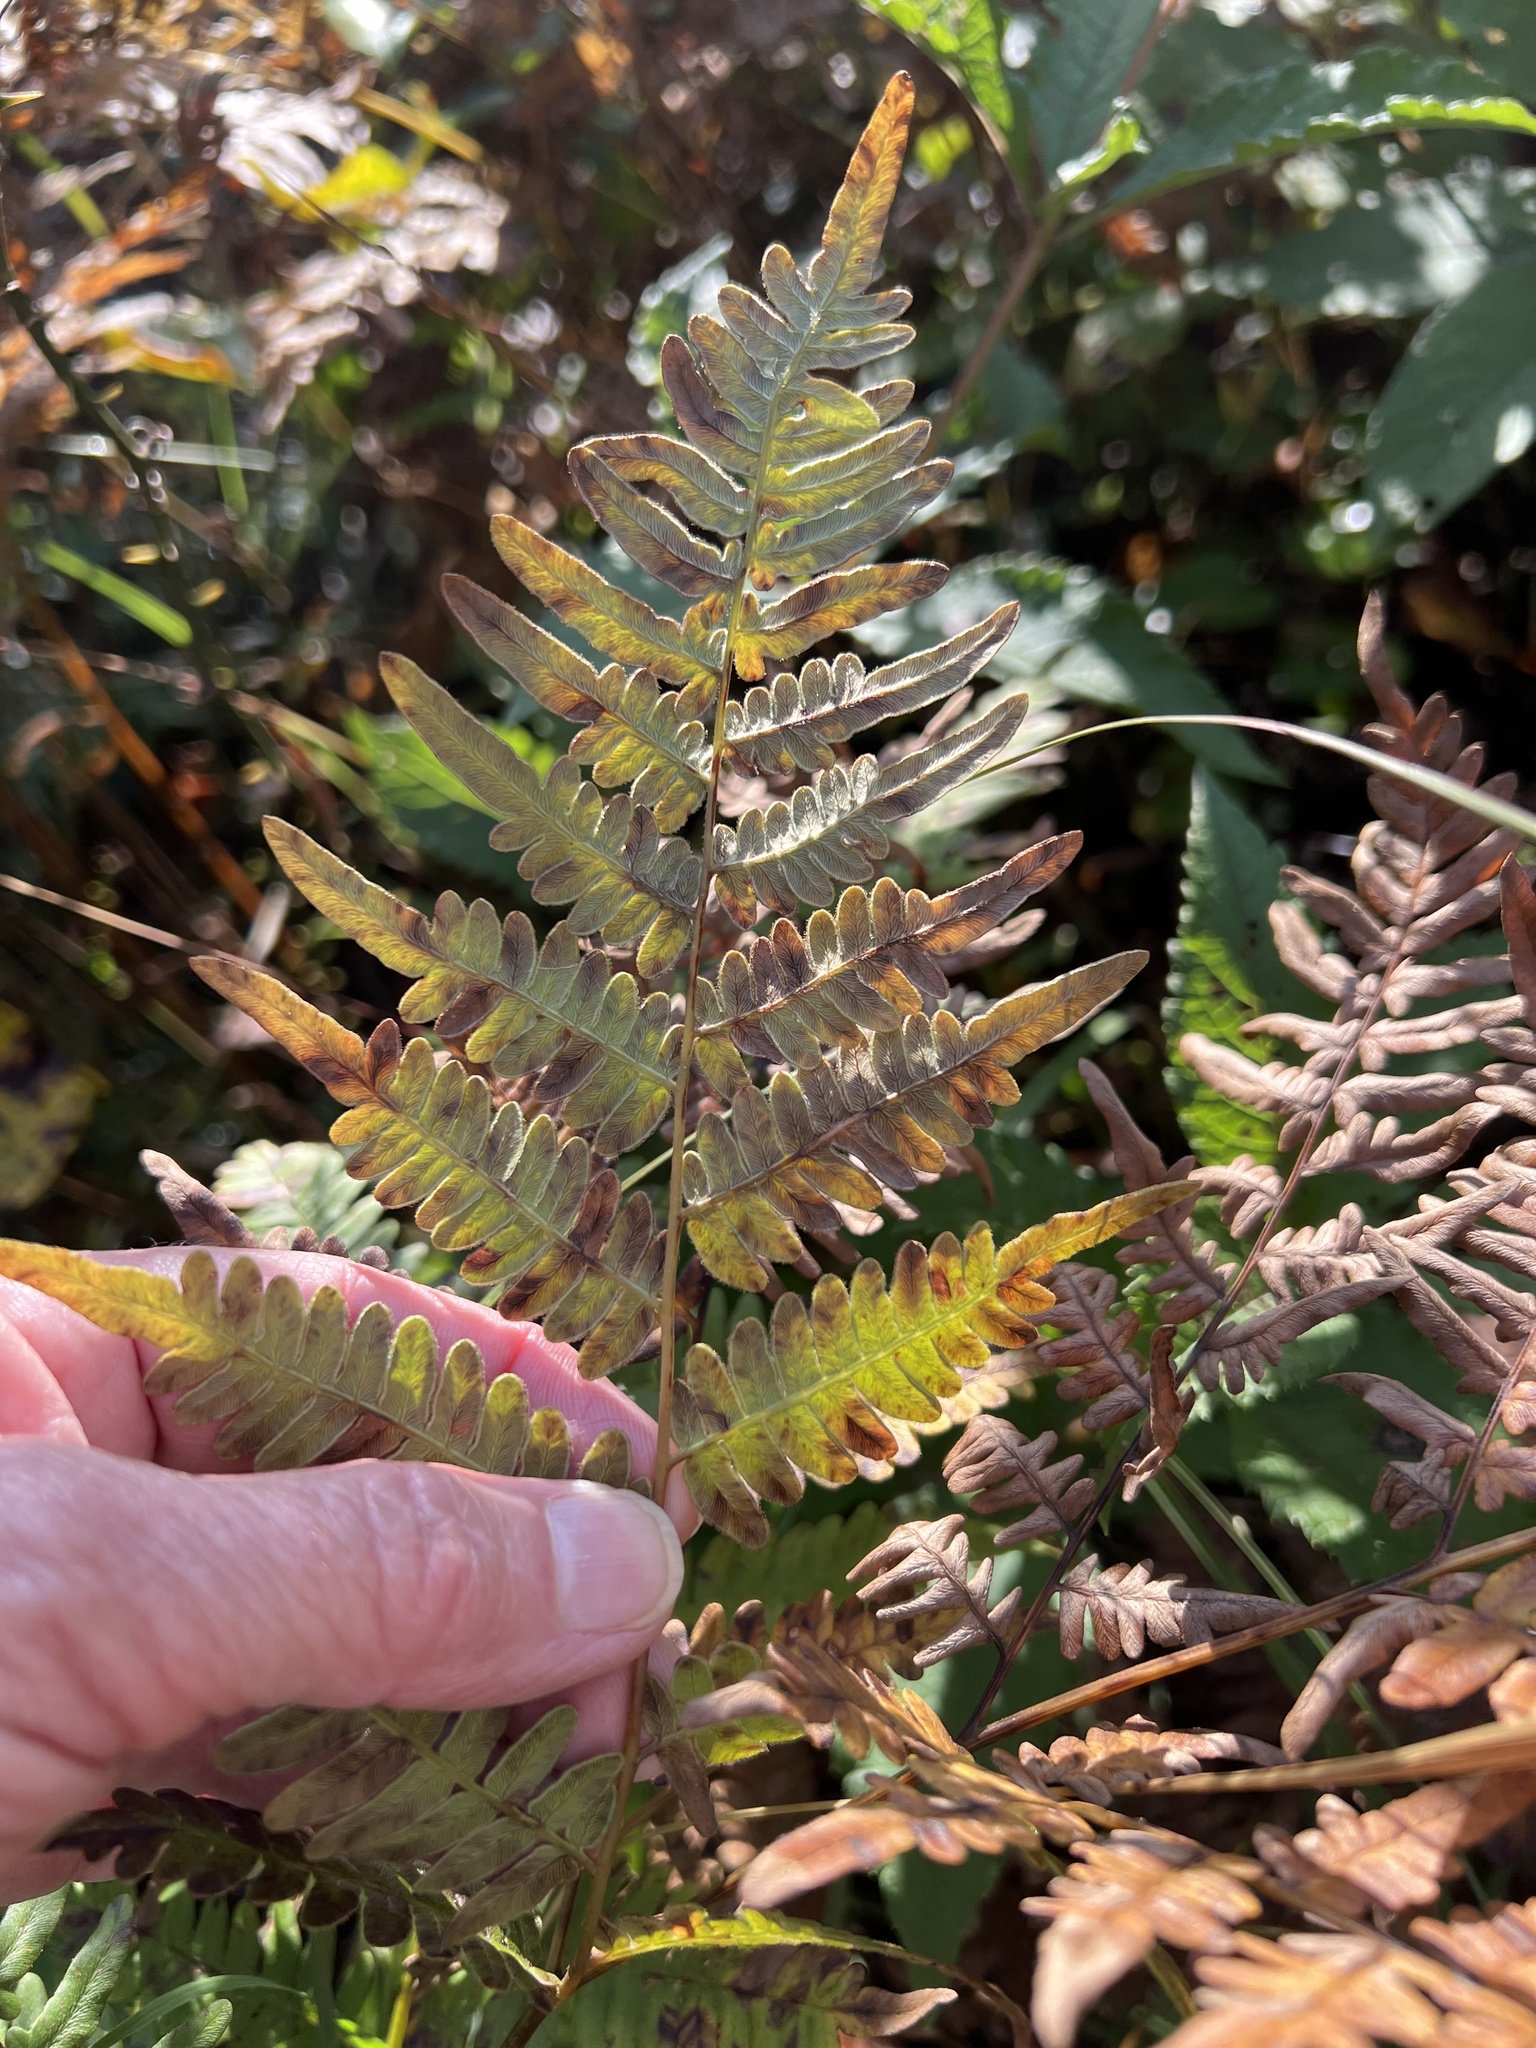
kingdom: Plantae
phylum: Tracheophyta
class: Polypodiopsida
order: Polypodiales
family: Dennstaedtiaceae
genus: Pteridium
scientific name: Pteridium aquilinum
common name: Bracken
